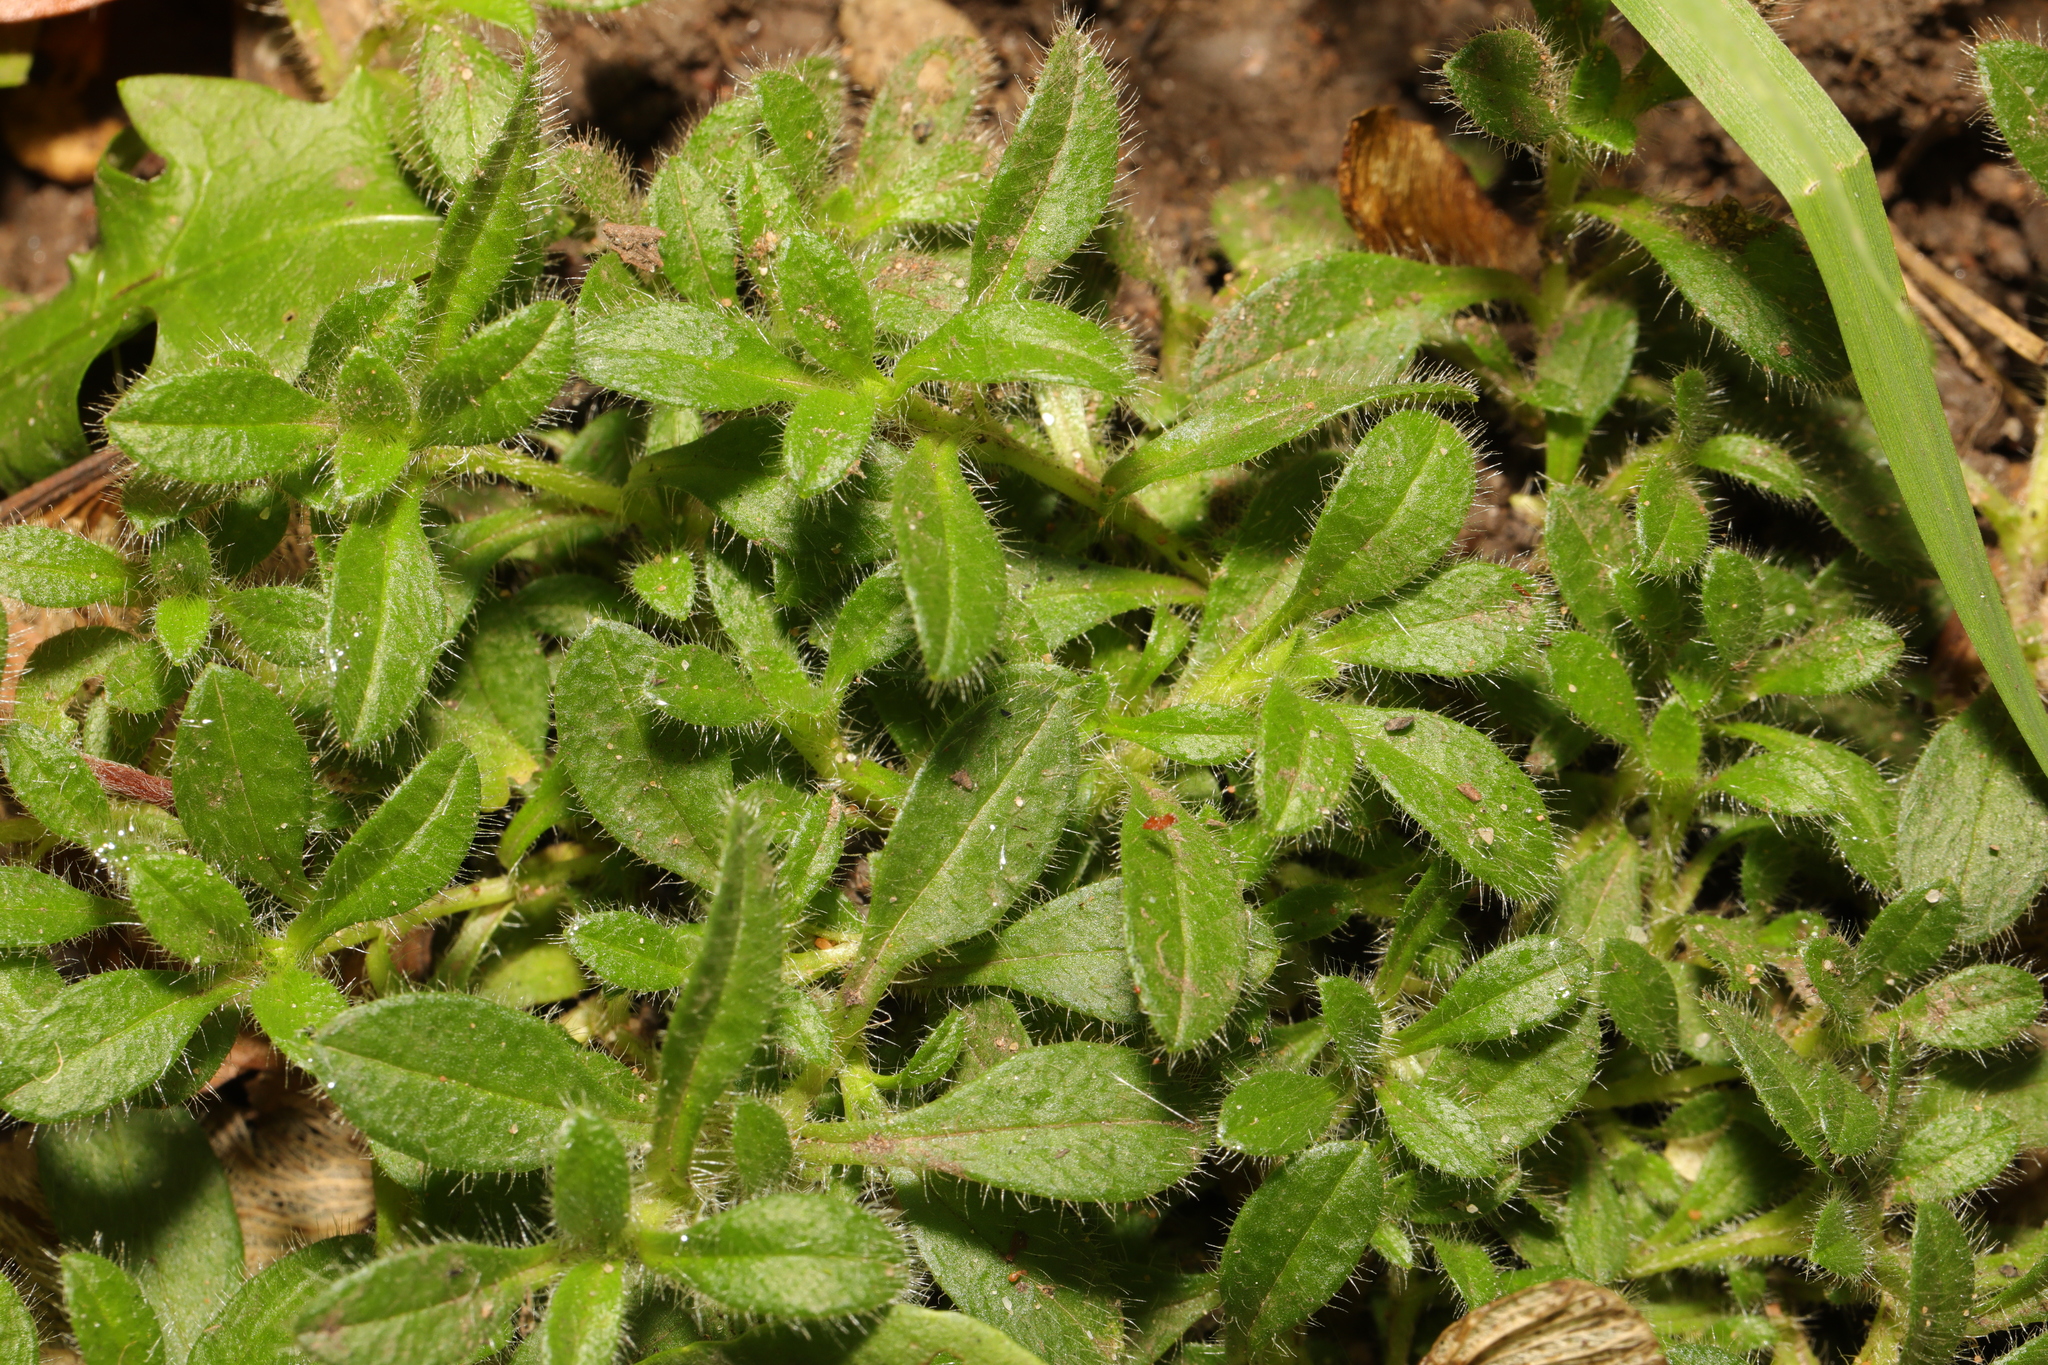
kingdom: Plantae
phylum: Tracheophyta
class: Magnoliopsida
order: Caryophyllales
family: Caryophyllaceae
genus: Cerastium
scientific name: Cerastium fontanum
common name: Common mouse-ear
